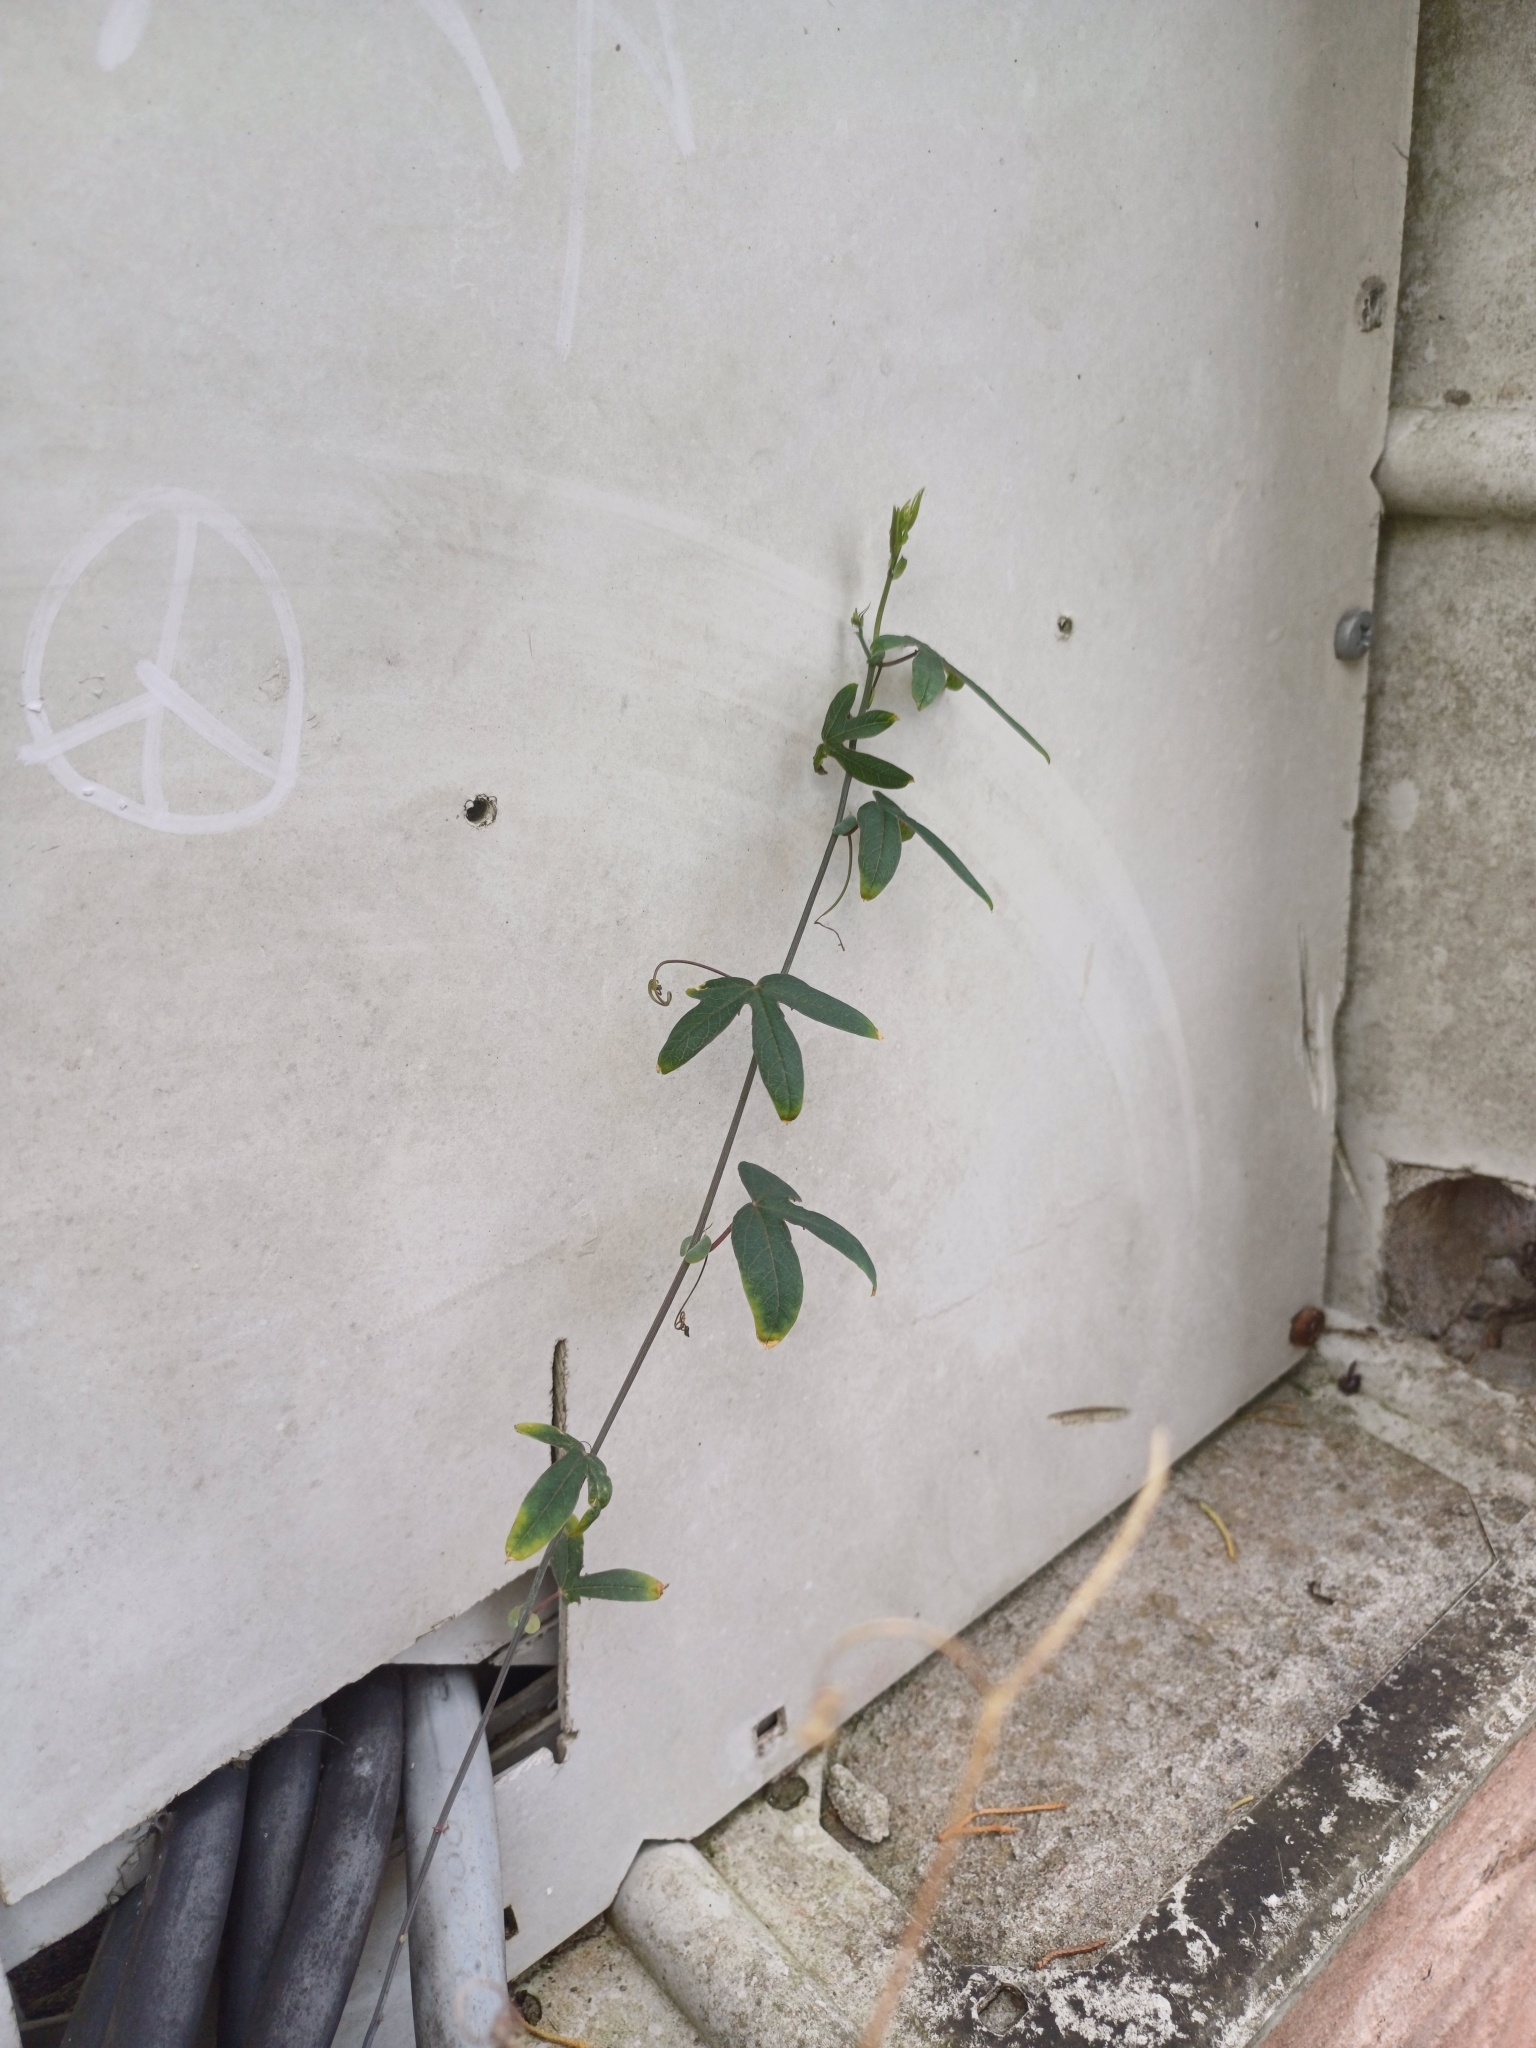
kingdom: Plantae
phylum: Tracheophyta
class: Magnoliopsida
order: Malpighiales
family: Passifloraceae
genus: Passiflora
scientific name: Passiflora caerulea
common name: Blue passionflower
